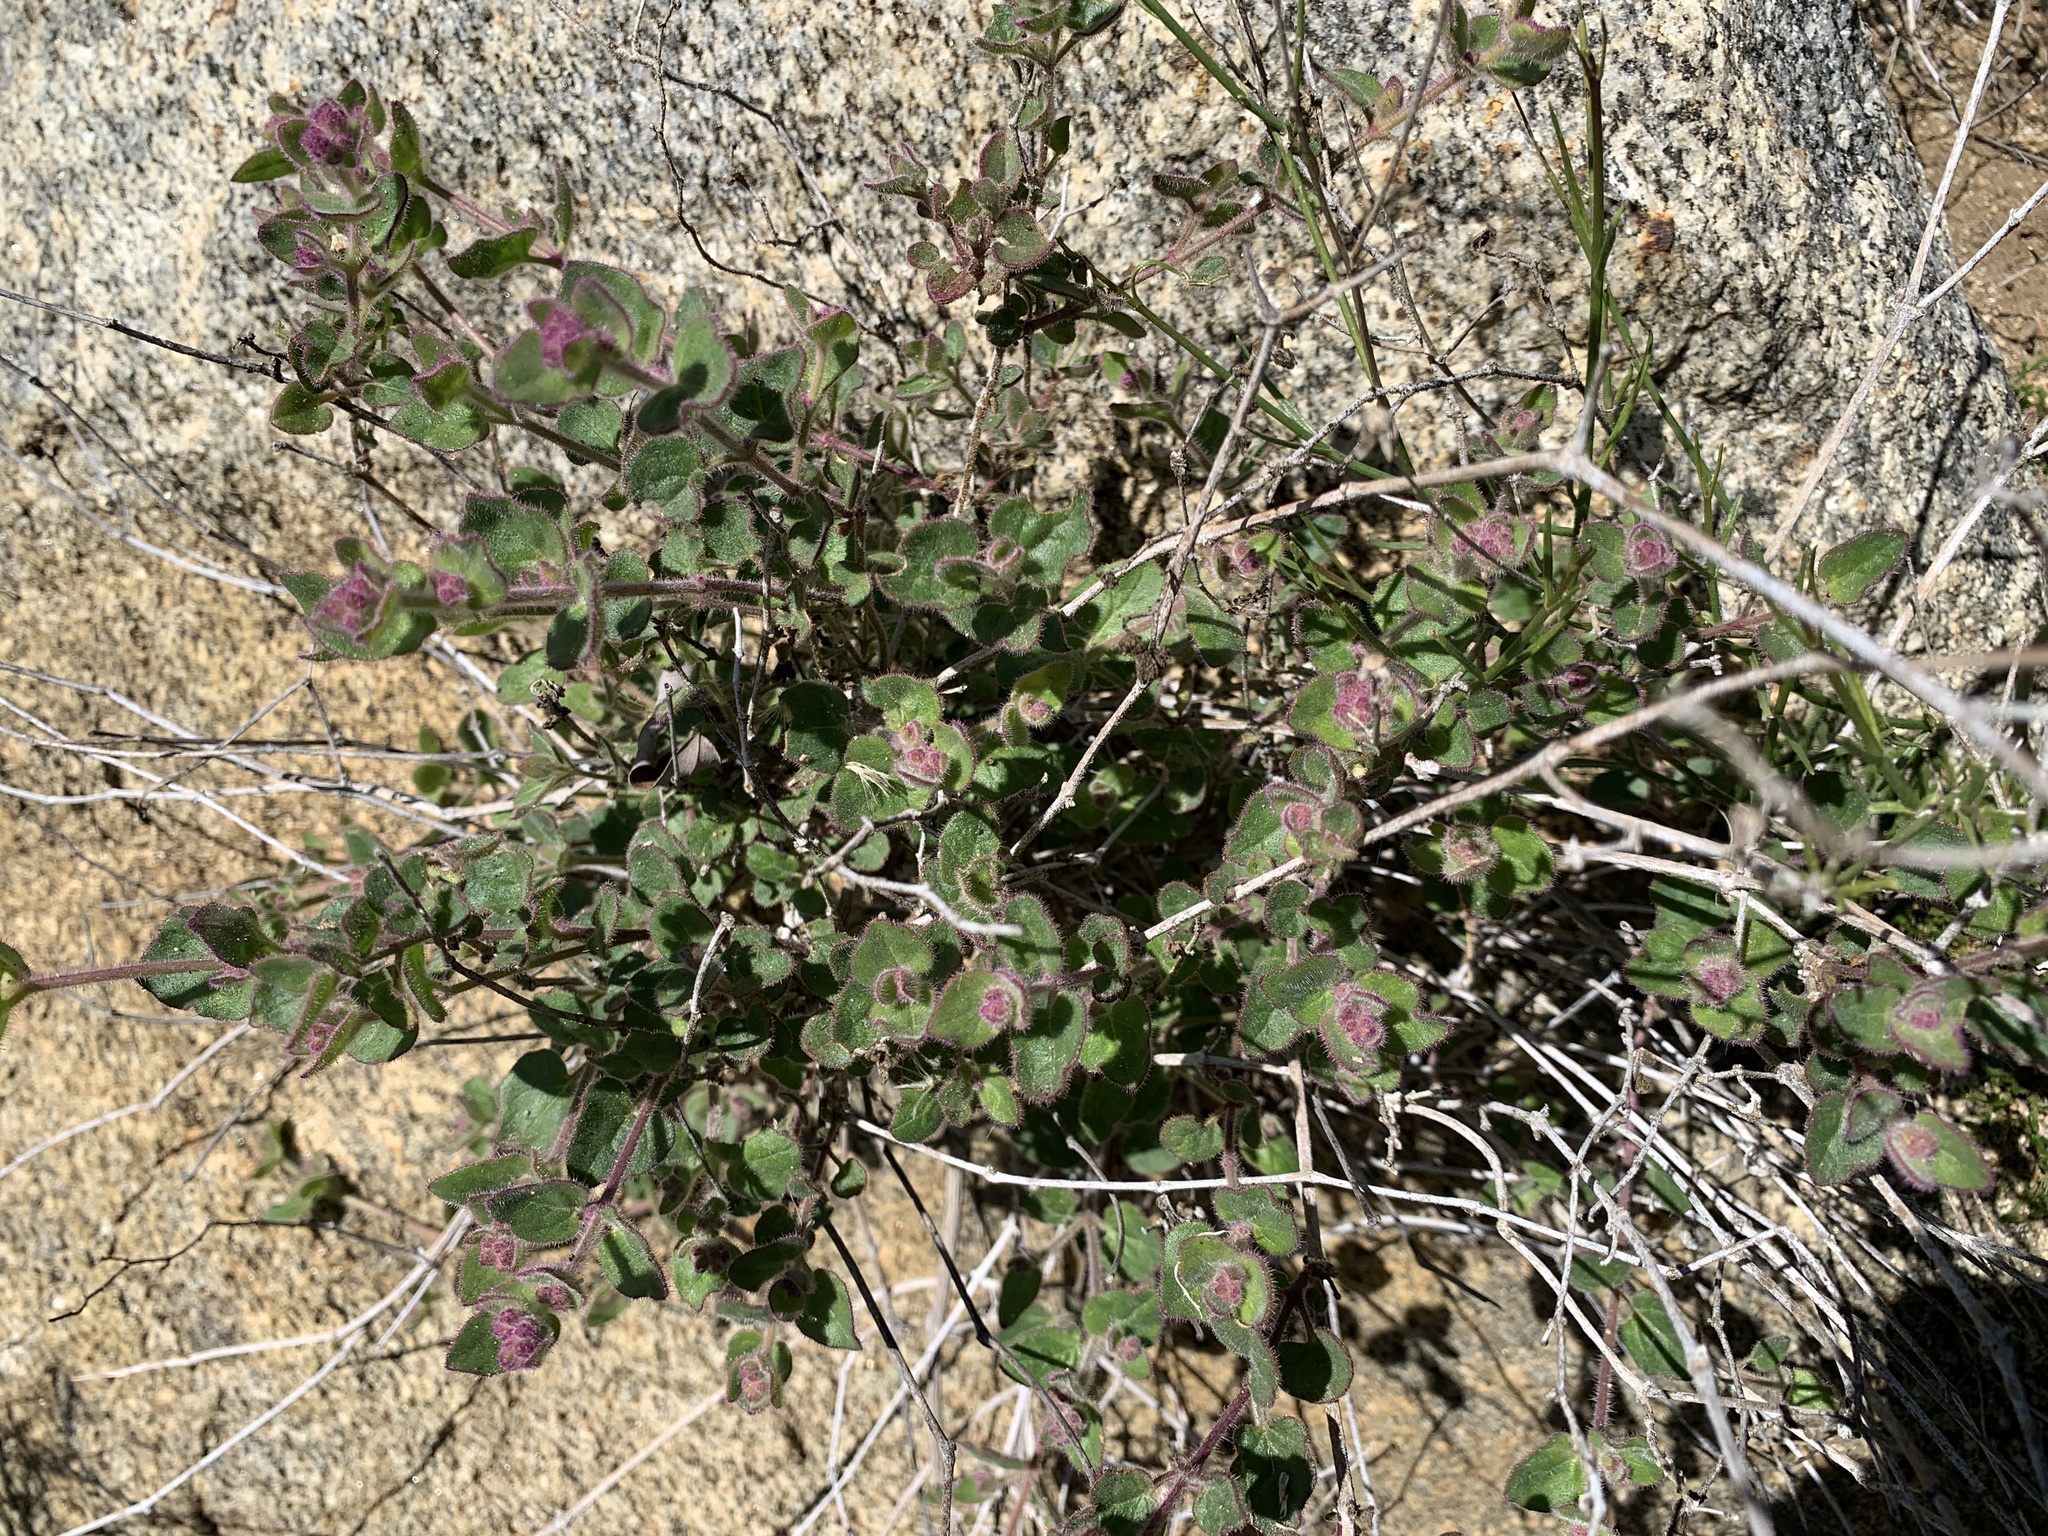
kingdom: Plantae
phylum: Tracheophyta
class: Magnoliopsida
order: Caryophyllales
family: Nyctaginaceae
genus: Mirabilis
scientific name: Mirabilis laevis
